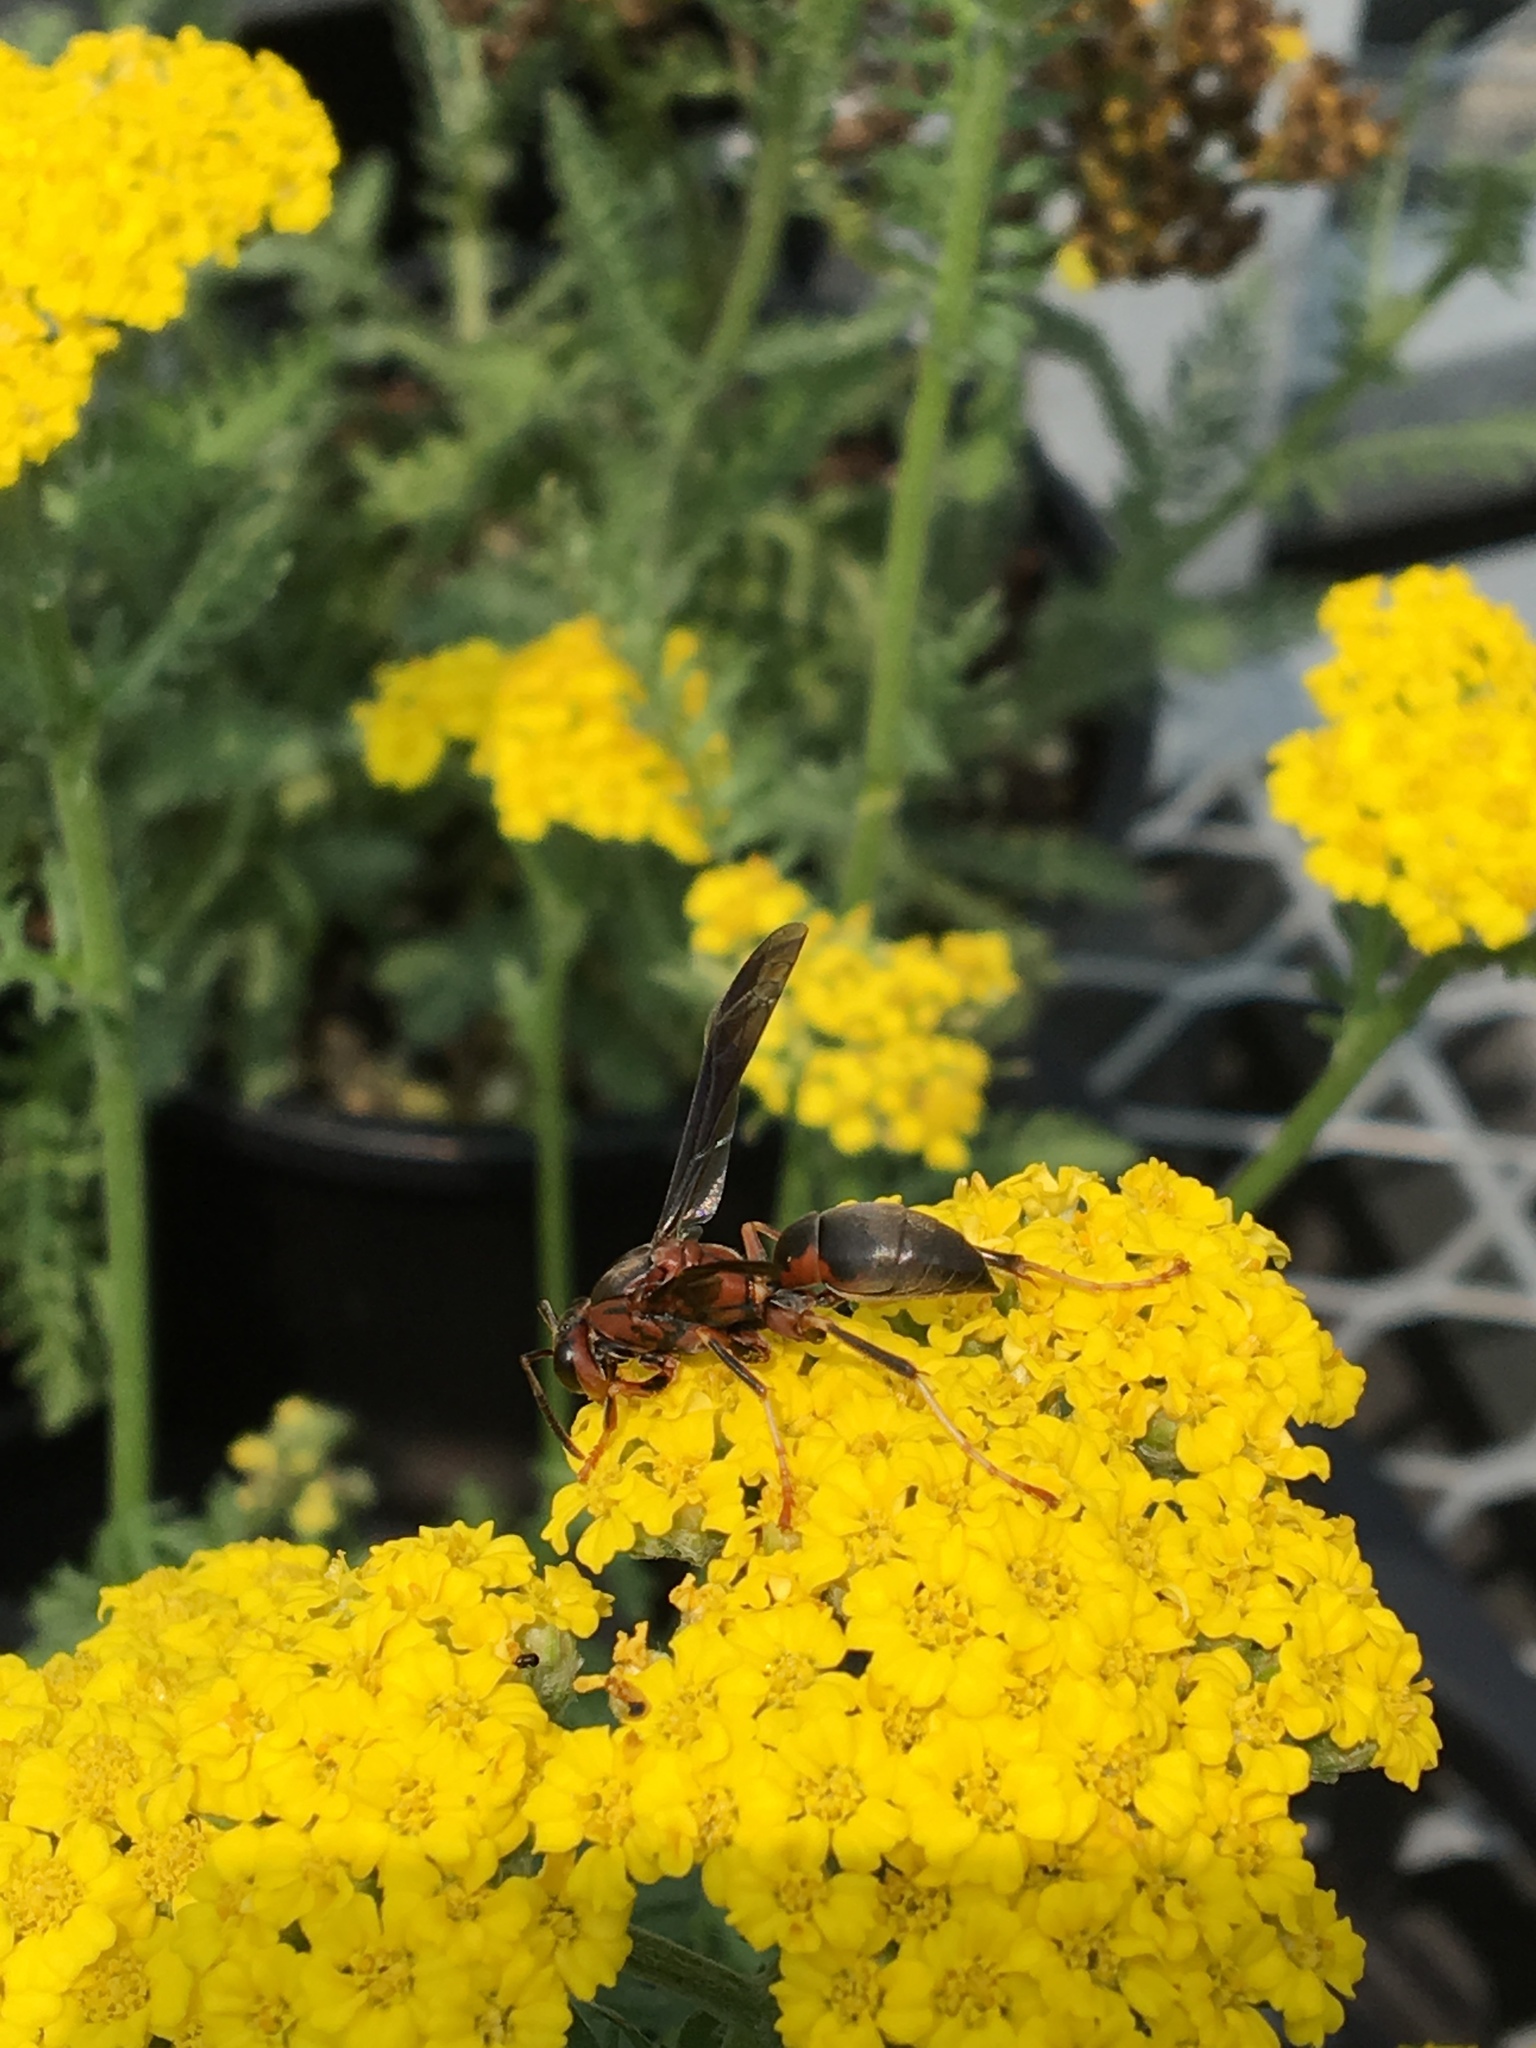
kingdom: Animalia
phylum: Arthropoda
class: Insecta
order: Hymenoptera
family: Eumenidae
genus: Polistes
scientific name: Polistes metricus
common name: Metric paper wasp
